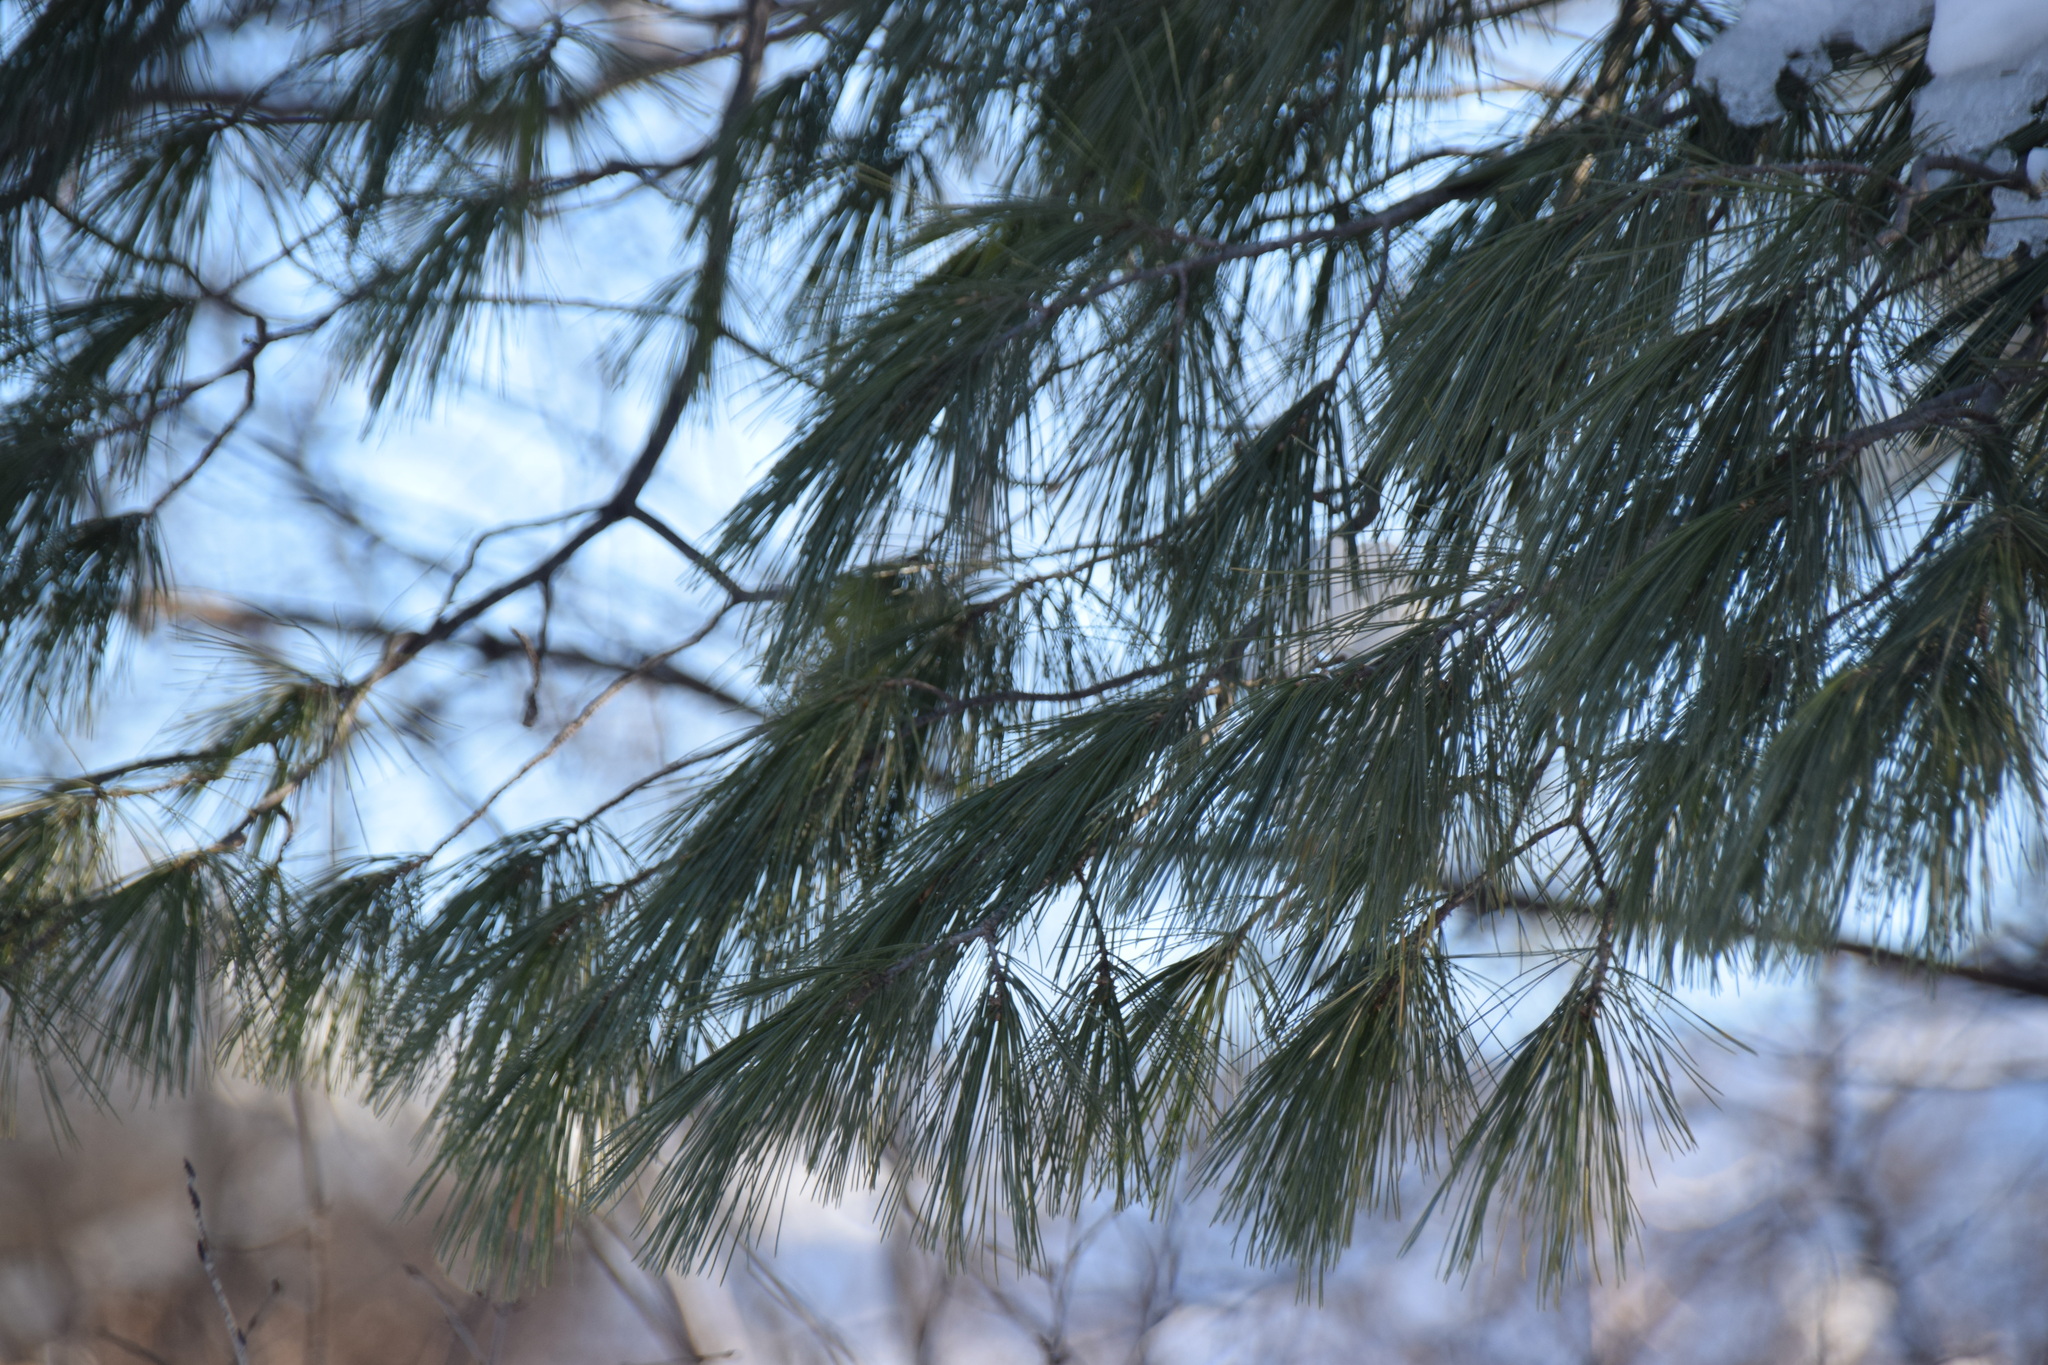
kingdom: Plantae
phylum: Tracheophyta
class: Pinopsida
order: Pinales
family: Pinaceae
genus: Pinus
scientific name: Pinus strobus
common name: Weymouth pine
